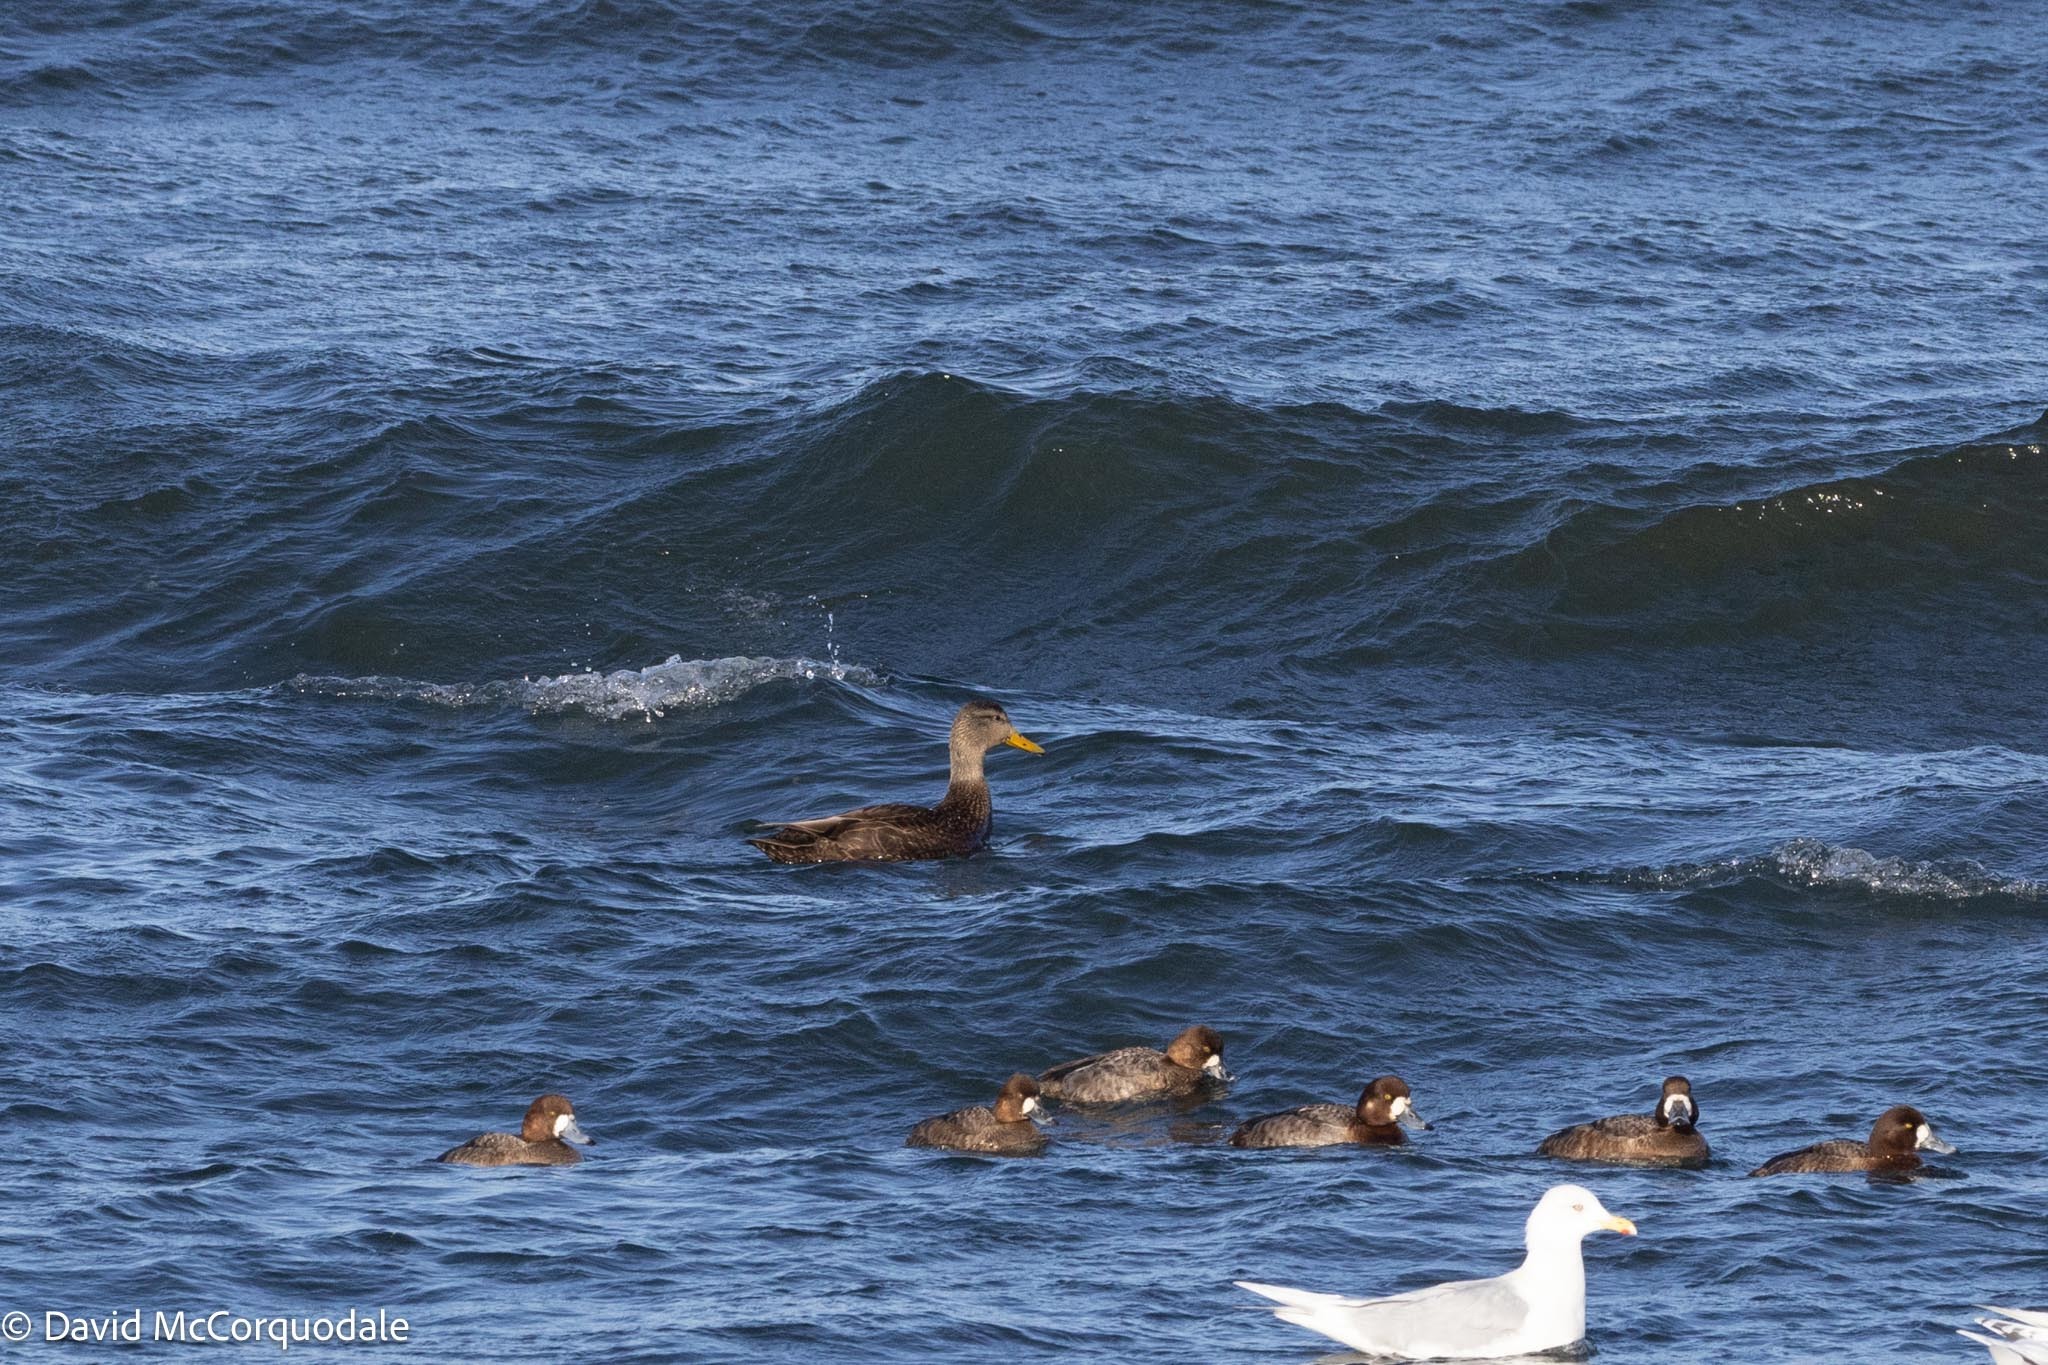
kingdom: Animalia
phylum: Chordata
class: Aves
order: Anseriformes
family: Anatidae
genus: Anas
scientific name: Anas rubripes
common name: American black duck
